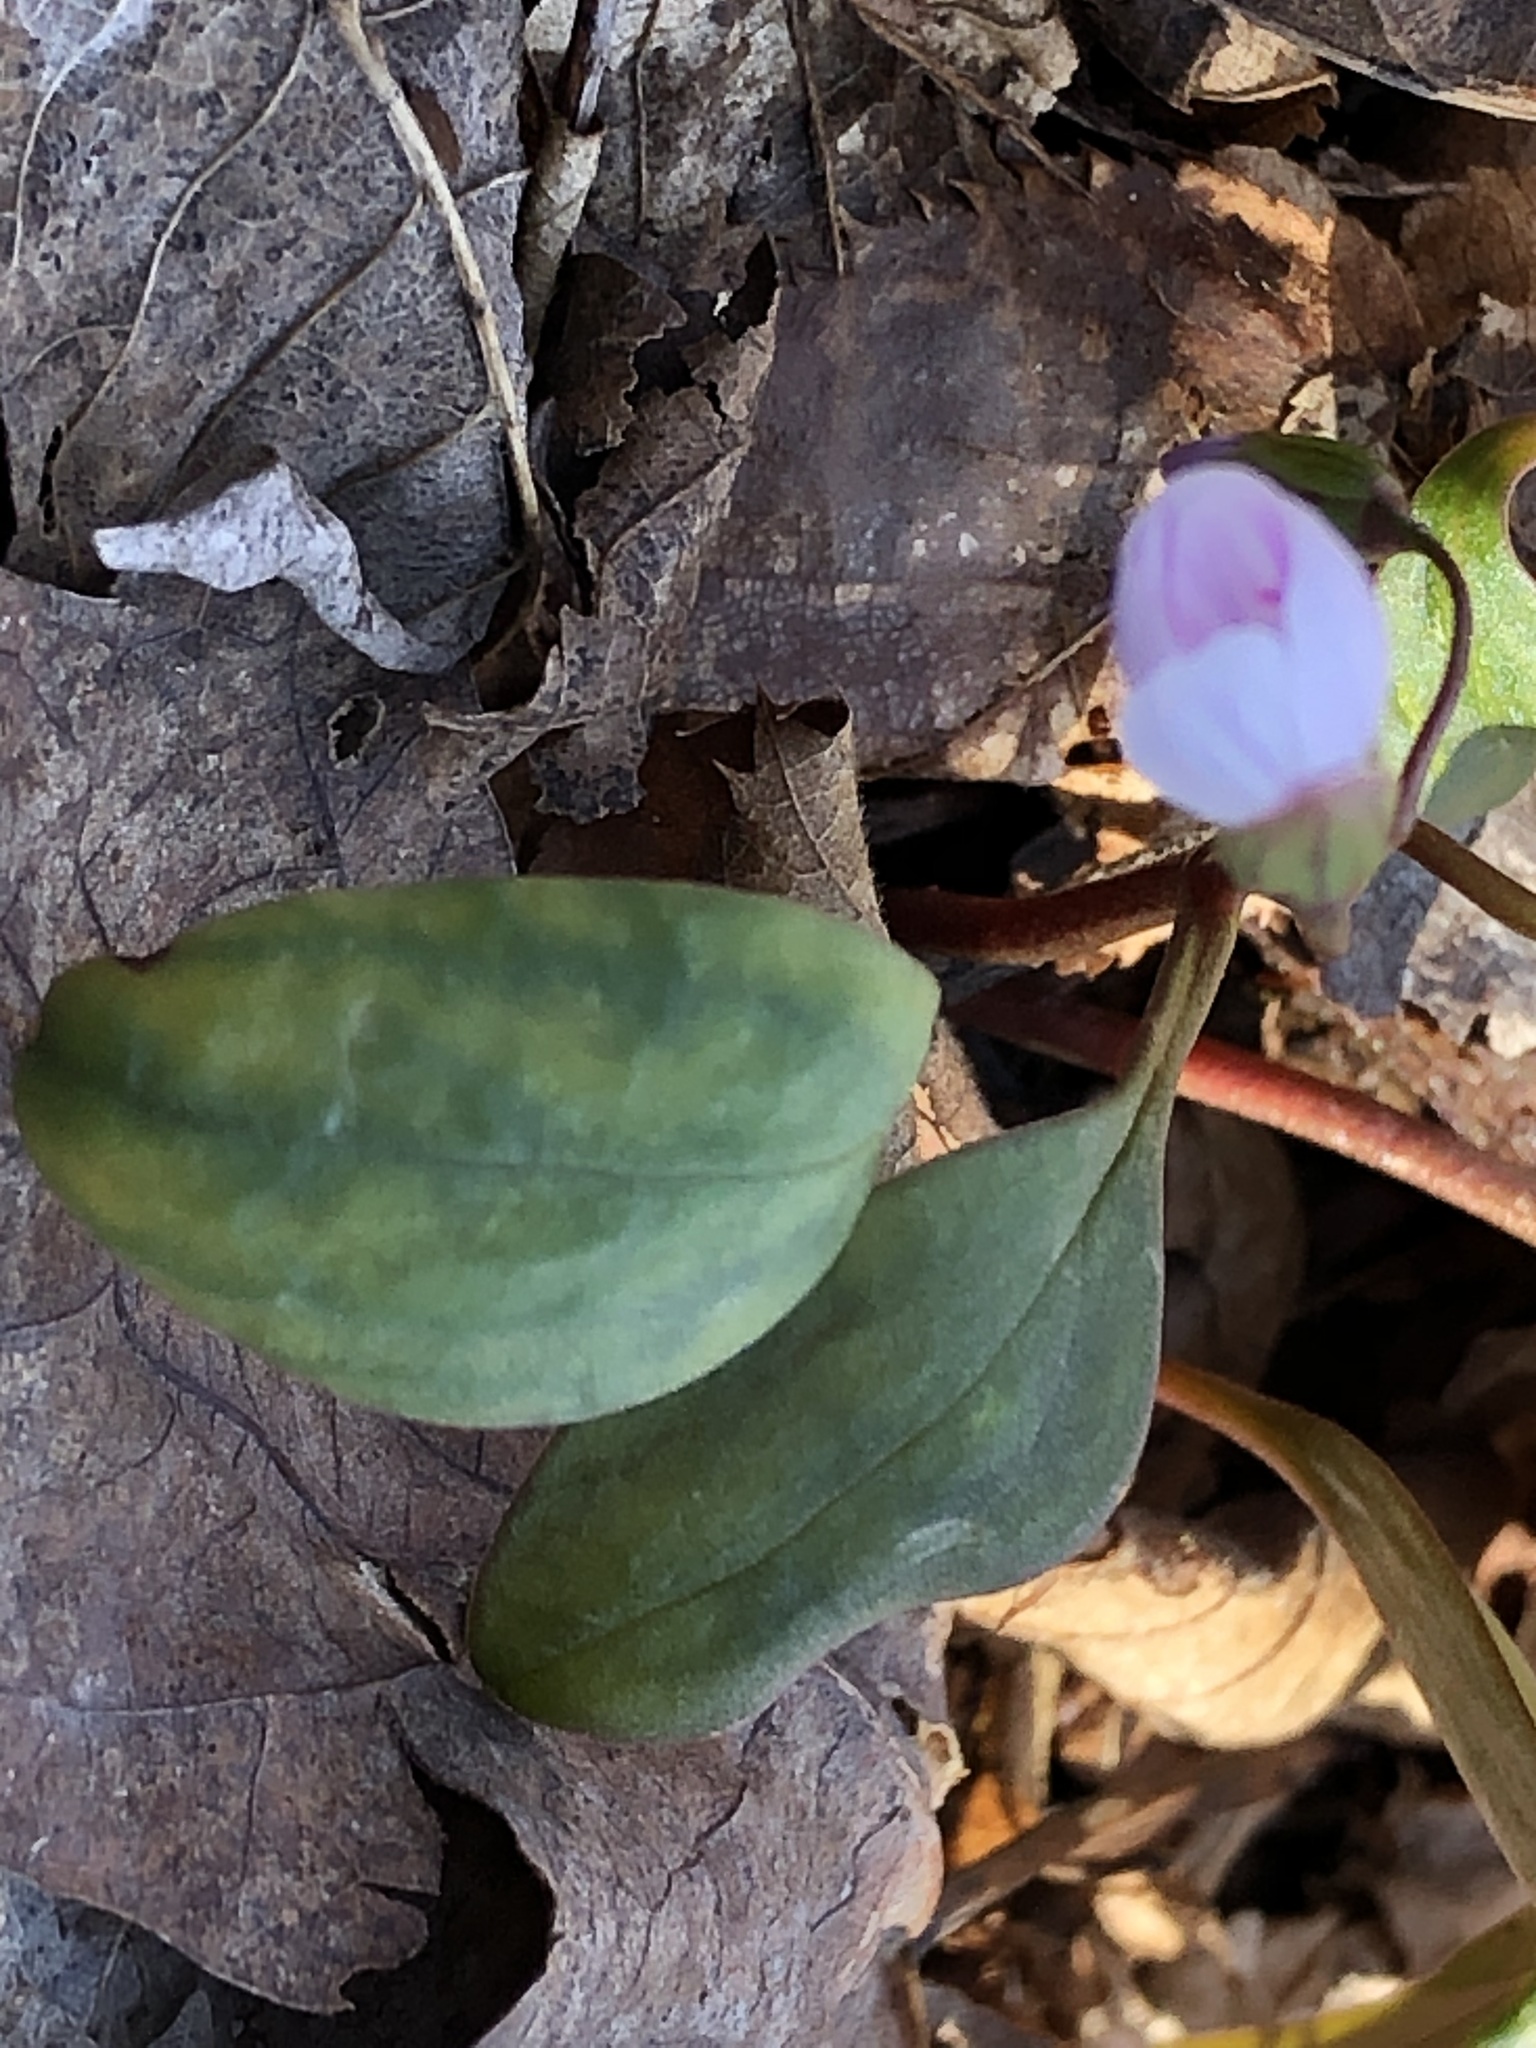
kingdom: Plantae
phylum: Tracheophyta
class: Magnoliopsida
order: Caryophyllales
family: Montiaceae
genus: Claytonia
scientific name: Claytonia caroliniana
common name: Carolina spring beauty
